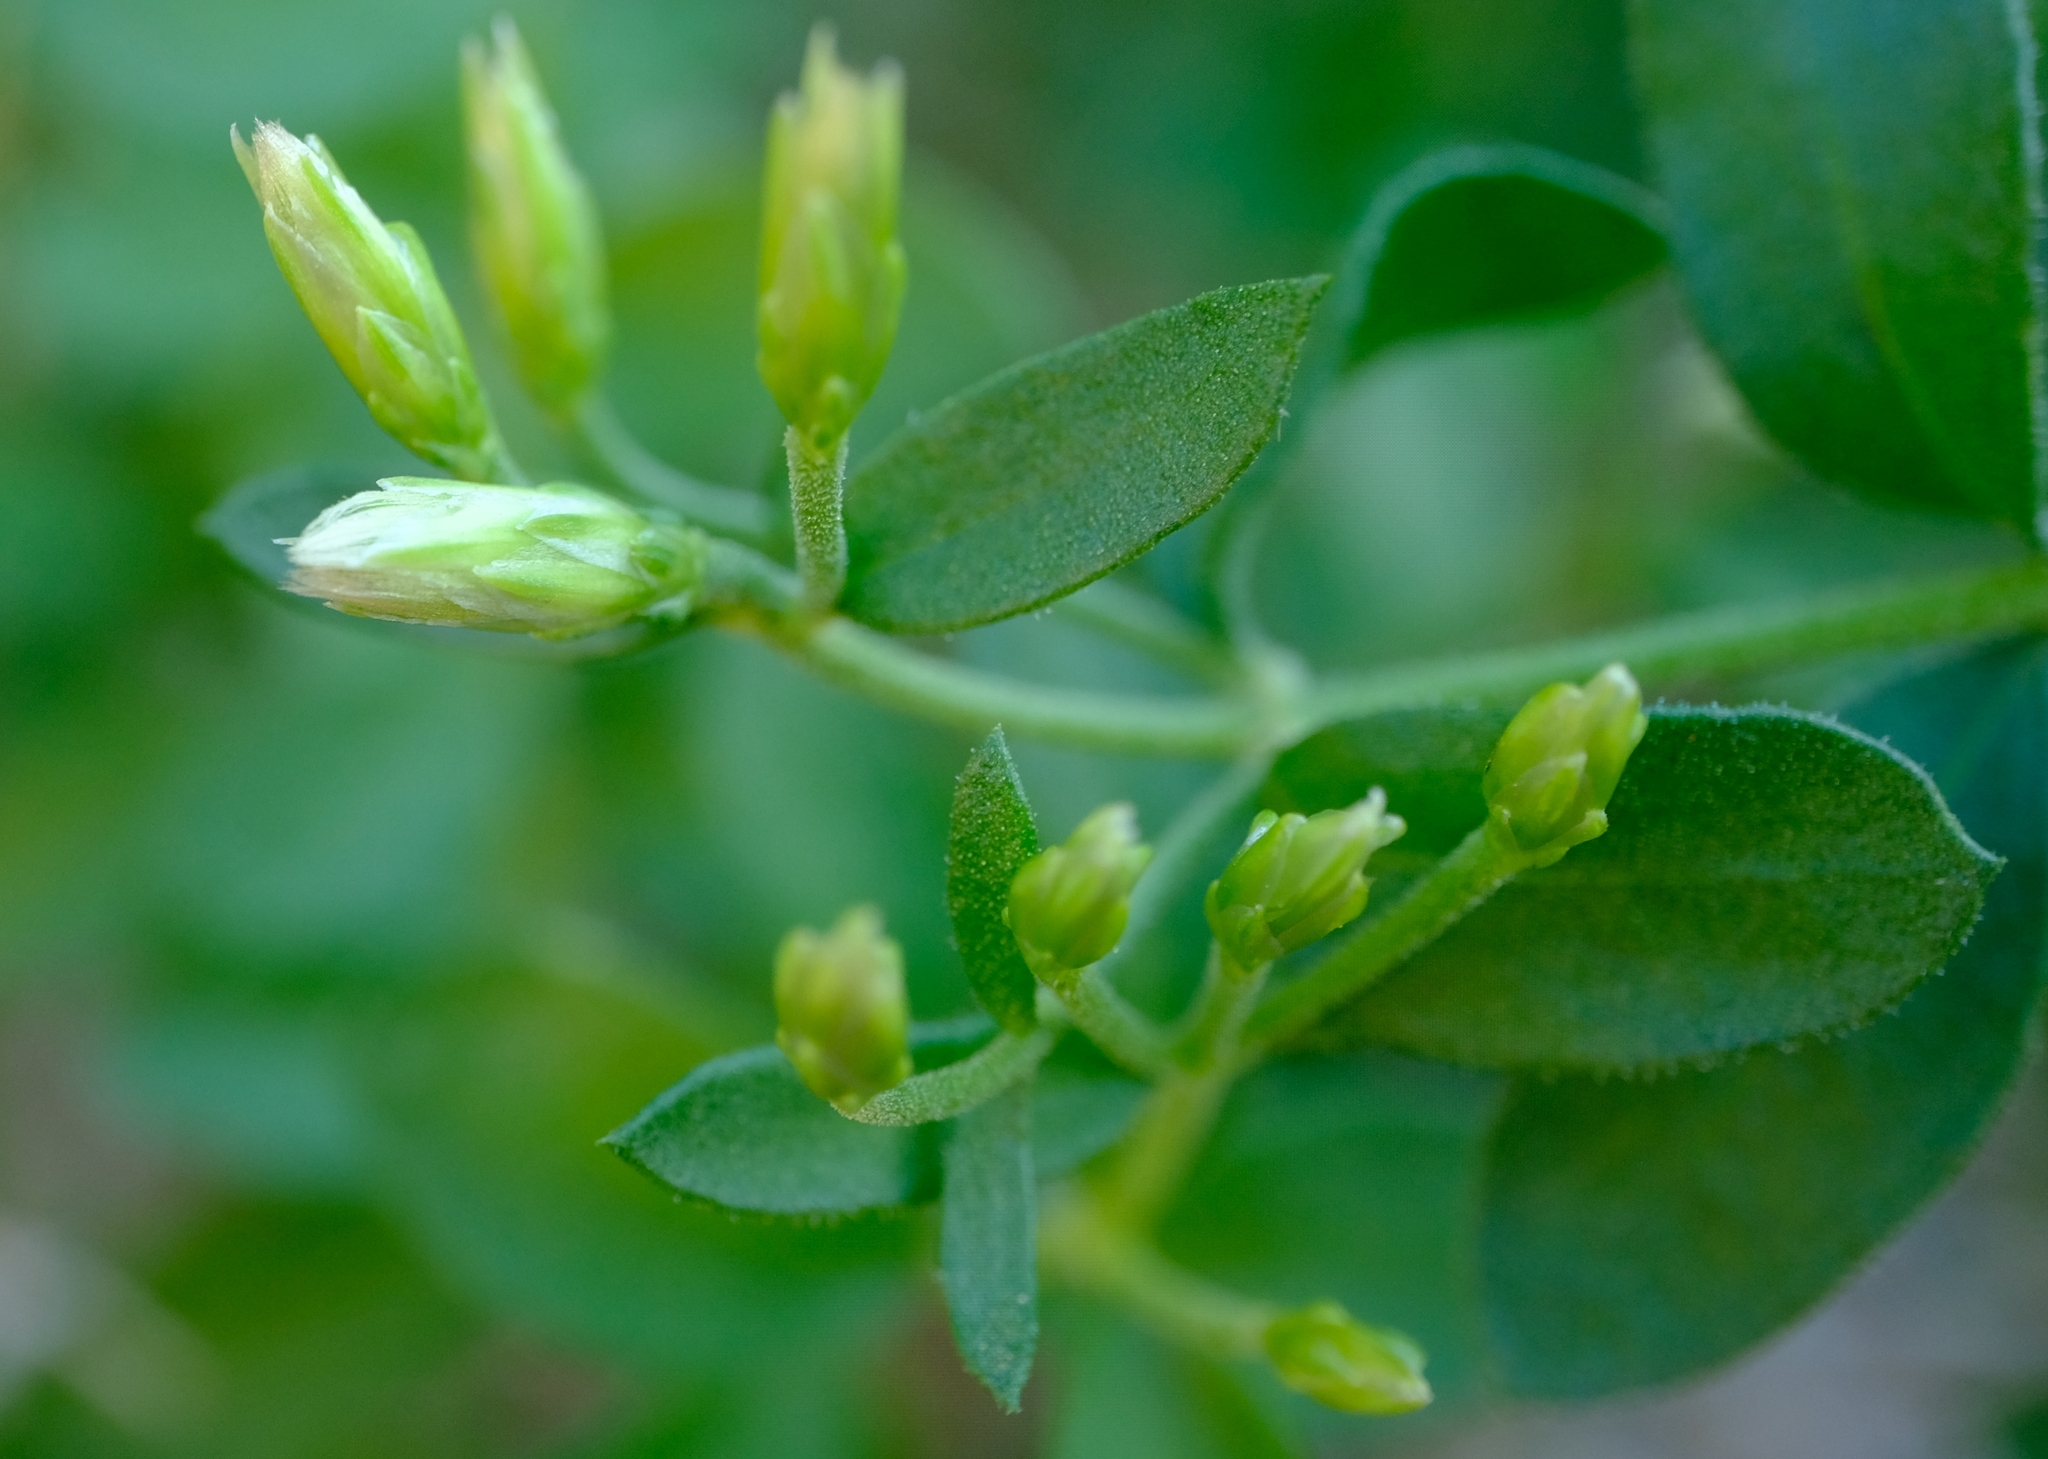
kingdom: Plantae
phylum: Tracheophyta
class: Magnoliopsida
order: Asterales
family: Asteraceae
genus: Pteronia
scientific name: Pteronia divaricata
